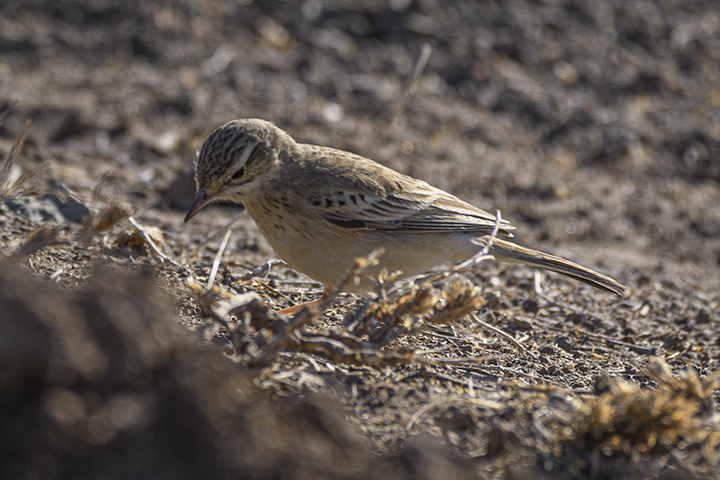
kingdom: Animalia
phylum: Chordata
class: Aves
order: Passeriformes
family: Motacillidae
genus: Anthus
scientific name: Anthus godlewskii
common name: Blyth's pipit
